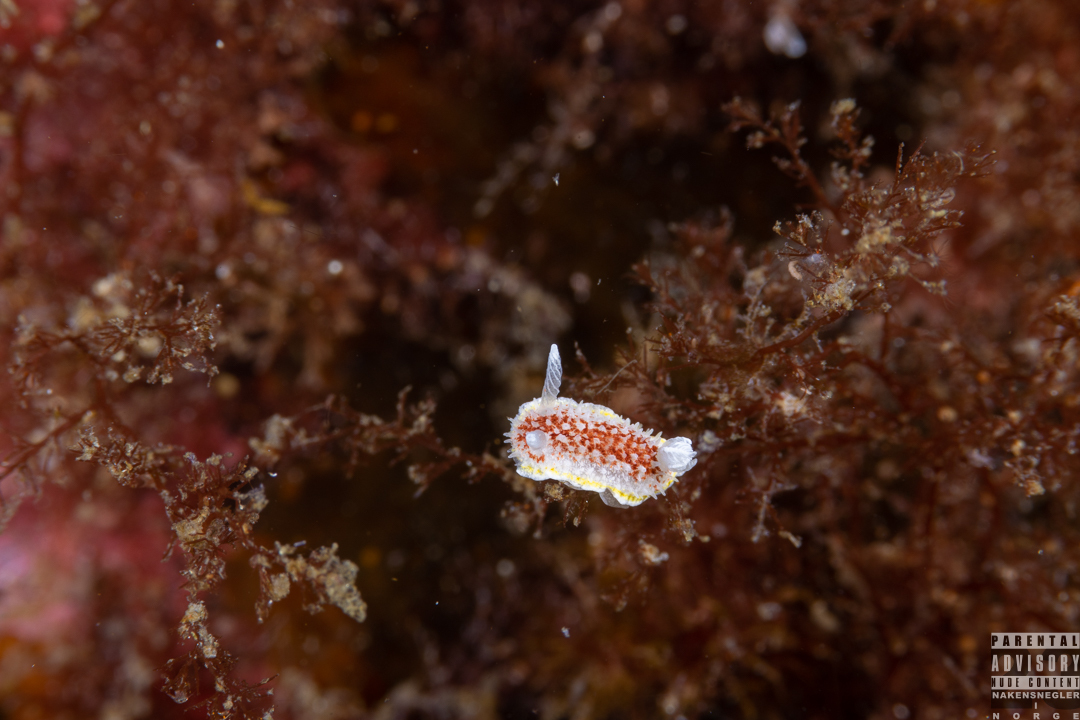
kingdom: Animalia
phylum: Mollusca
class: Gastropoda
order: Nudibranchia
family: Calycidorididae
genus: Diaphorodoris
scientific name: Diaphorodoris luteocincta
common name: Fried egg nudibranch
